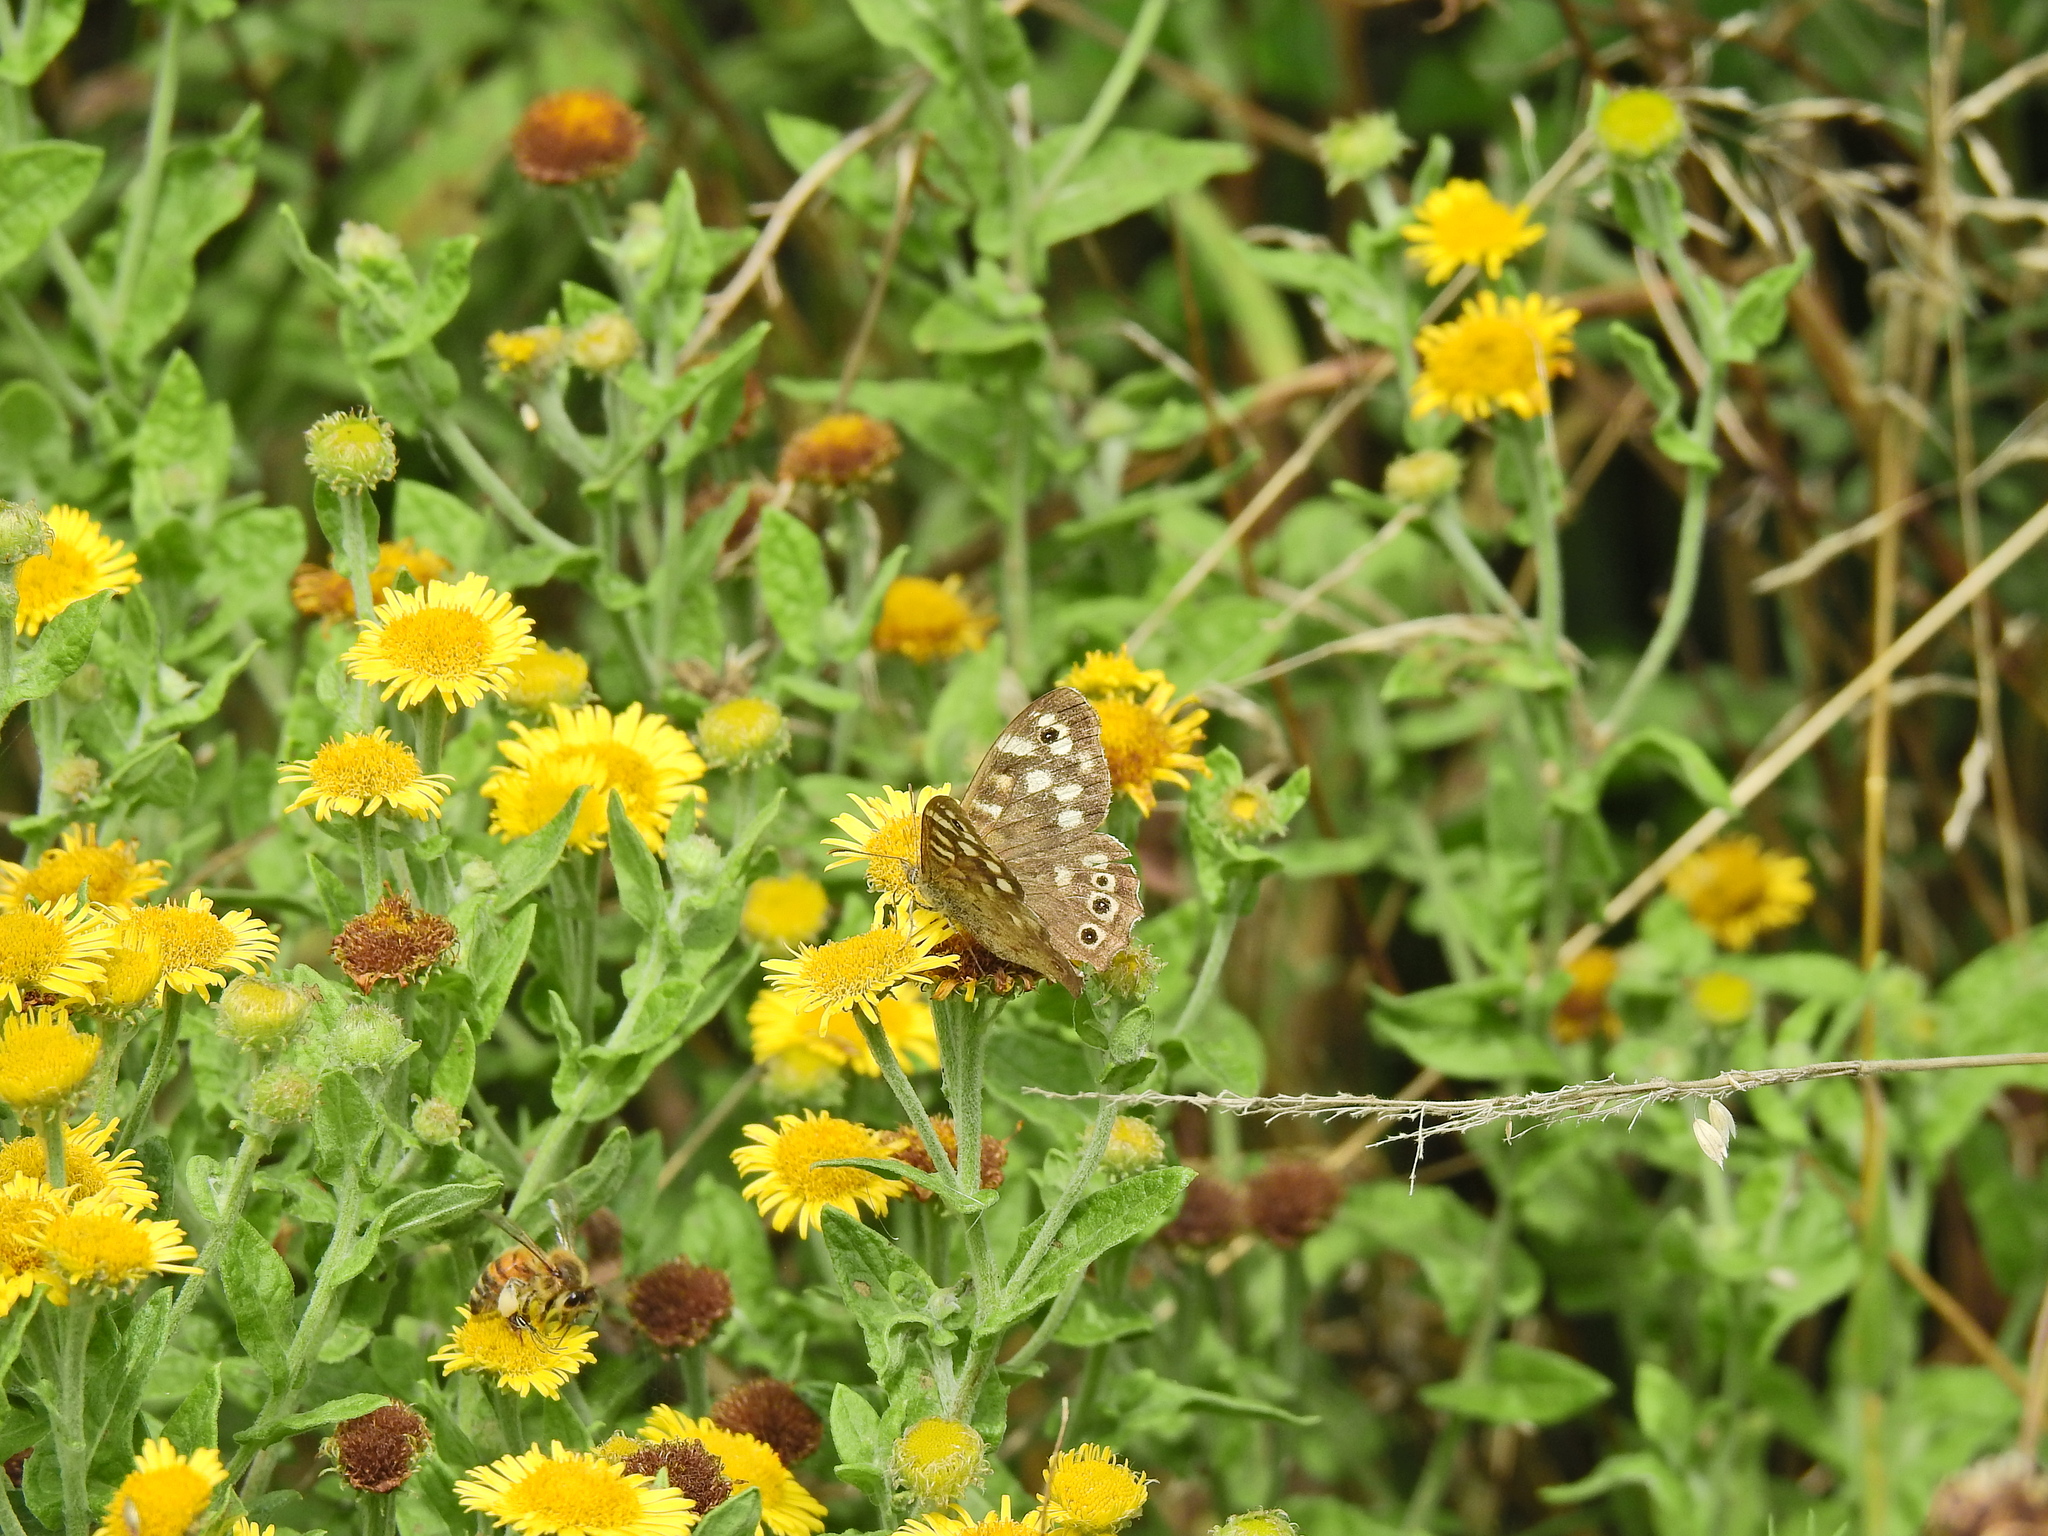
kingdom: Animalia
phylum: Arthropoda
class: Insecta
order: Lepidoptera
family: Nymphalidae
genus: Pararge
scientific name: Pararge aegeria
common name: Speckled wood
